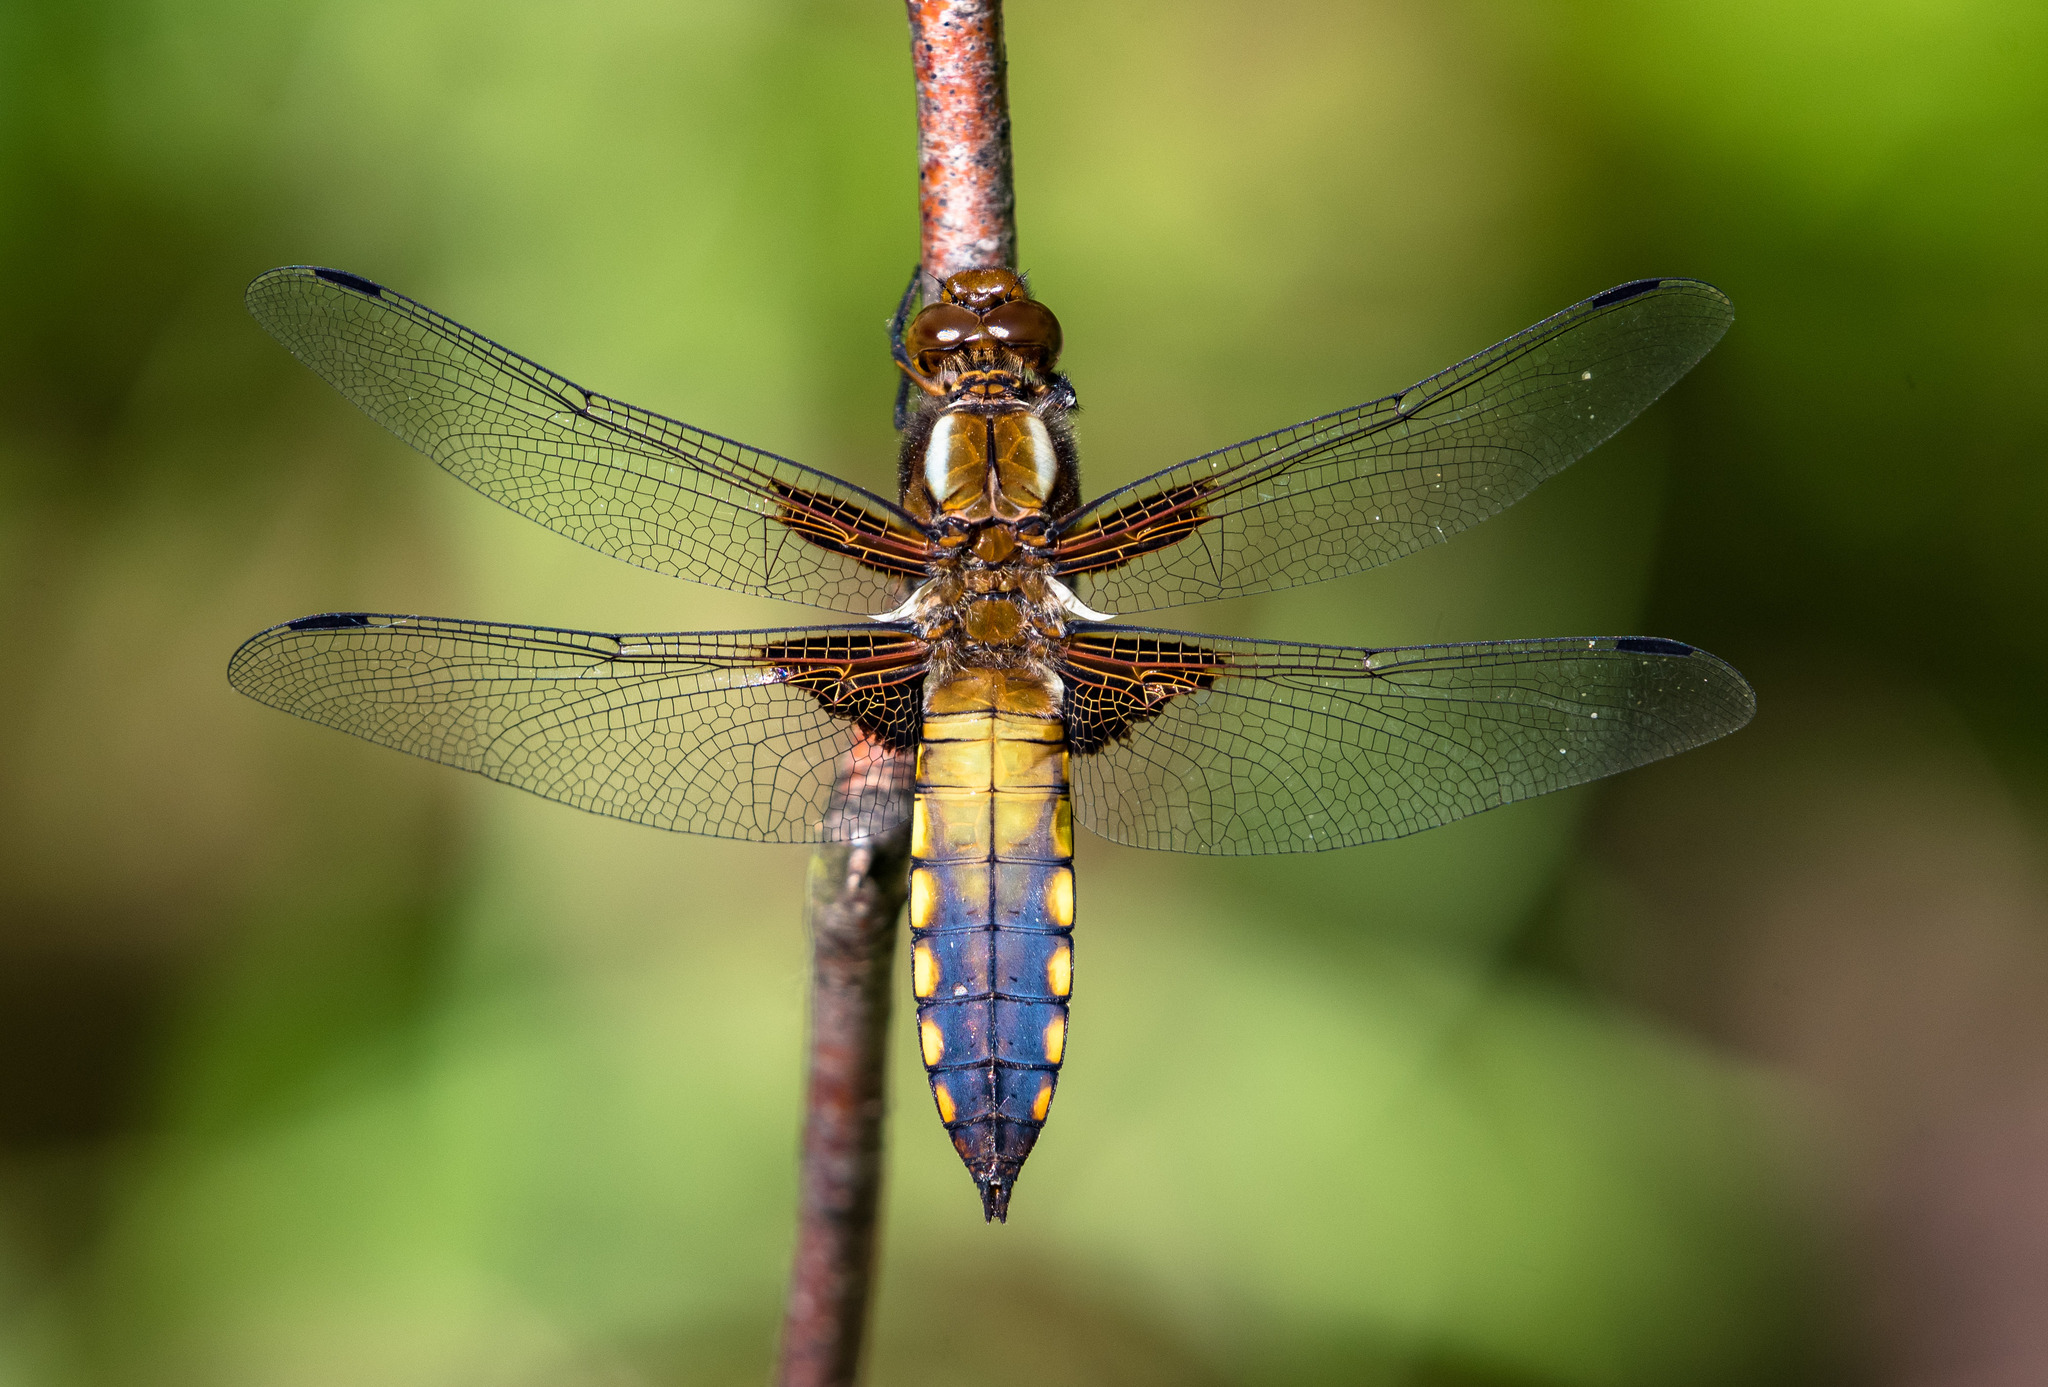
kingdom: Animalia
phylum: Arthropoda
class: Insecta
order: Odonata
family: Libellulidae
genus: Libellula
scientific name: Libellula depressa
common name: Broad-bodied chaser
